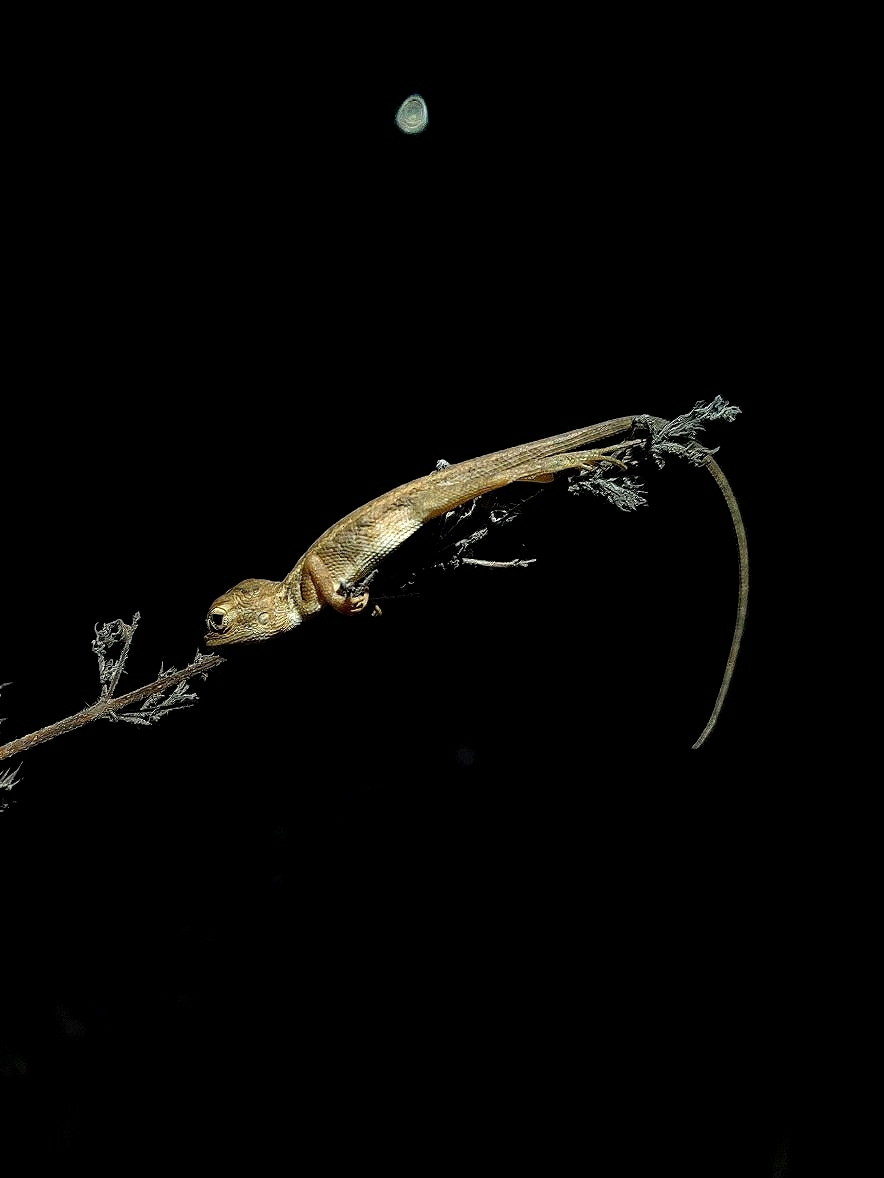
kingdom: Animalia
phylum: Chordata
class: Squamata
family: Agamidae
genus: Calotes
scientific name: Calotes versicolor
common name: Oriental garden lizard
